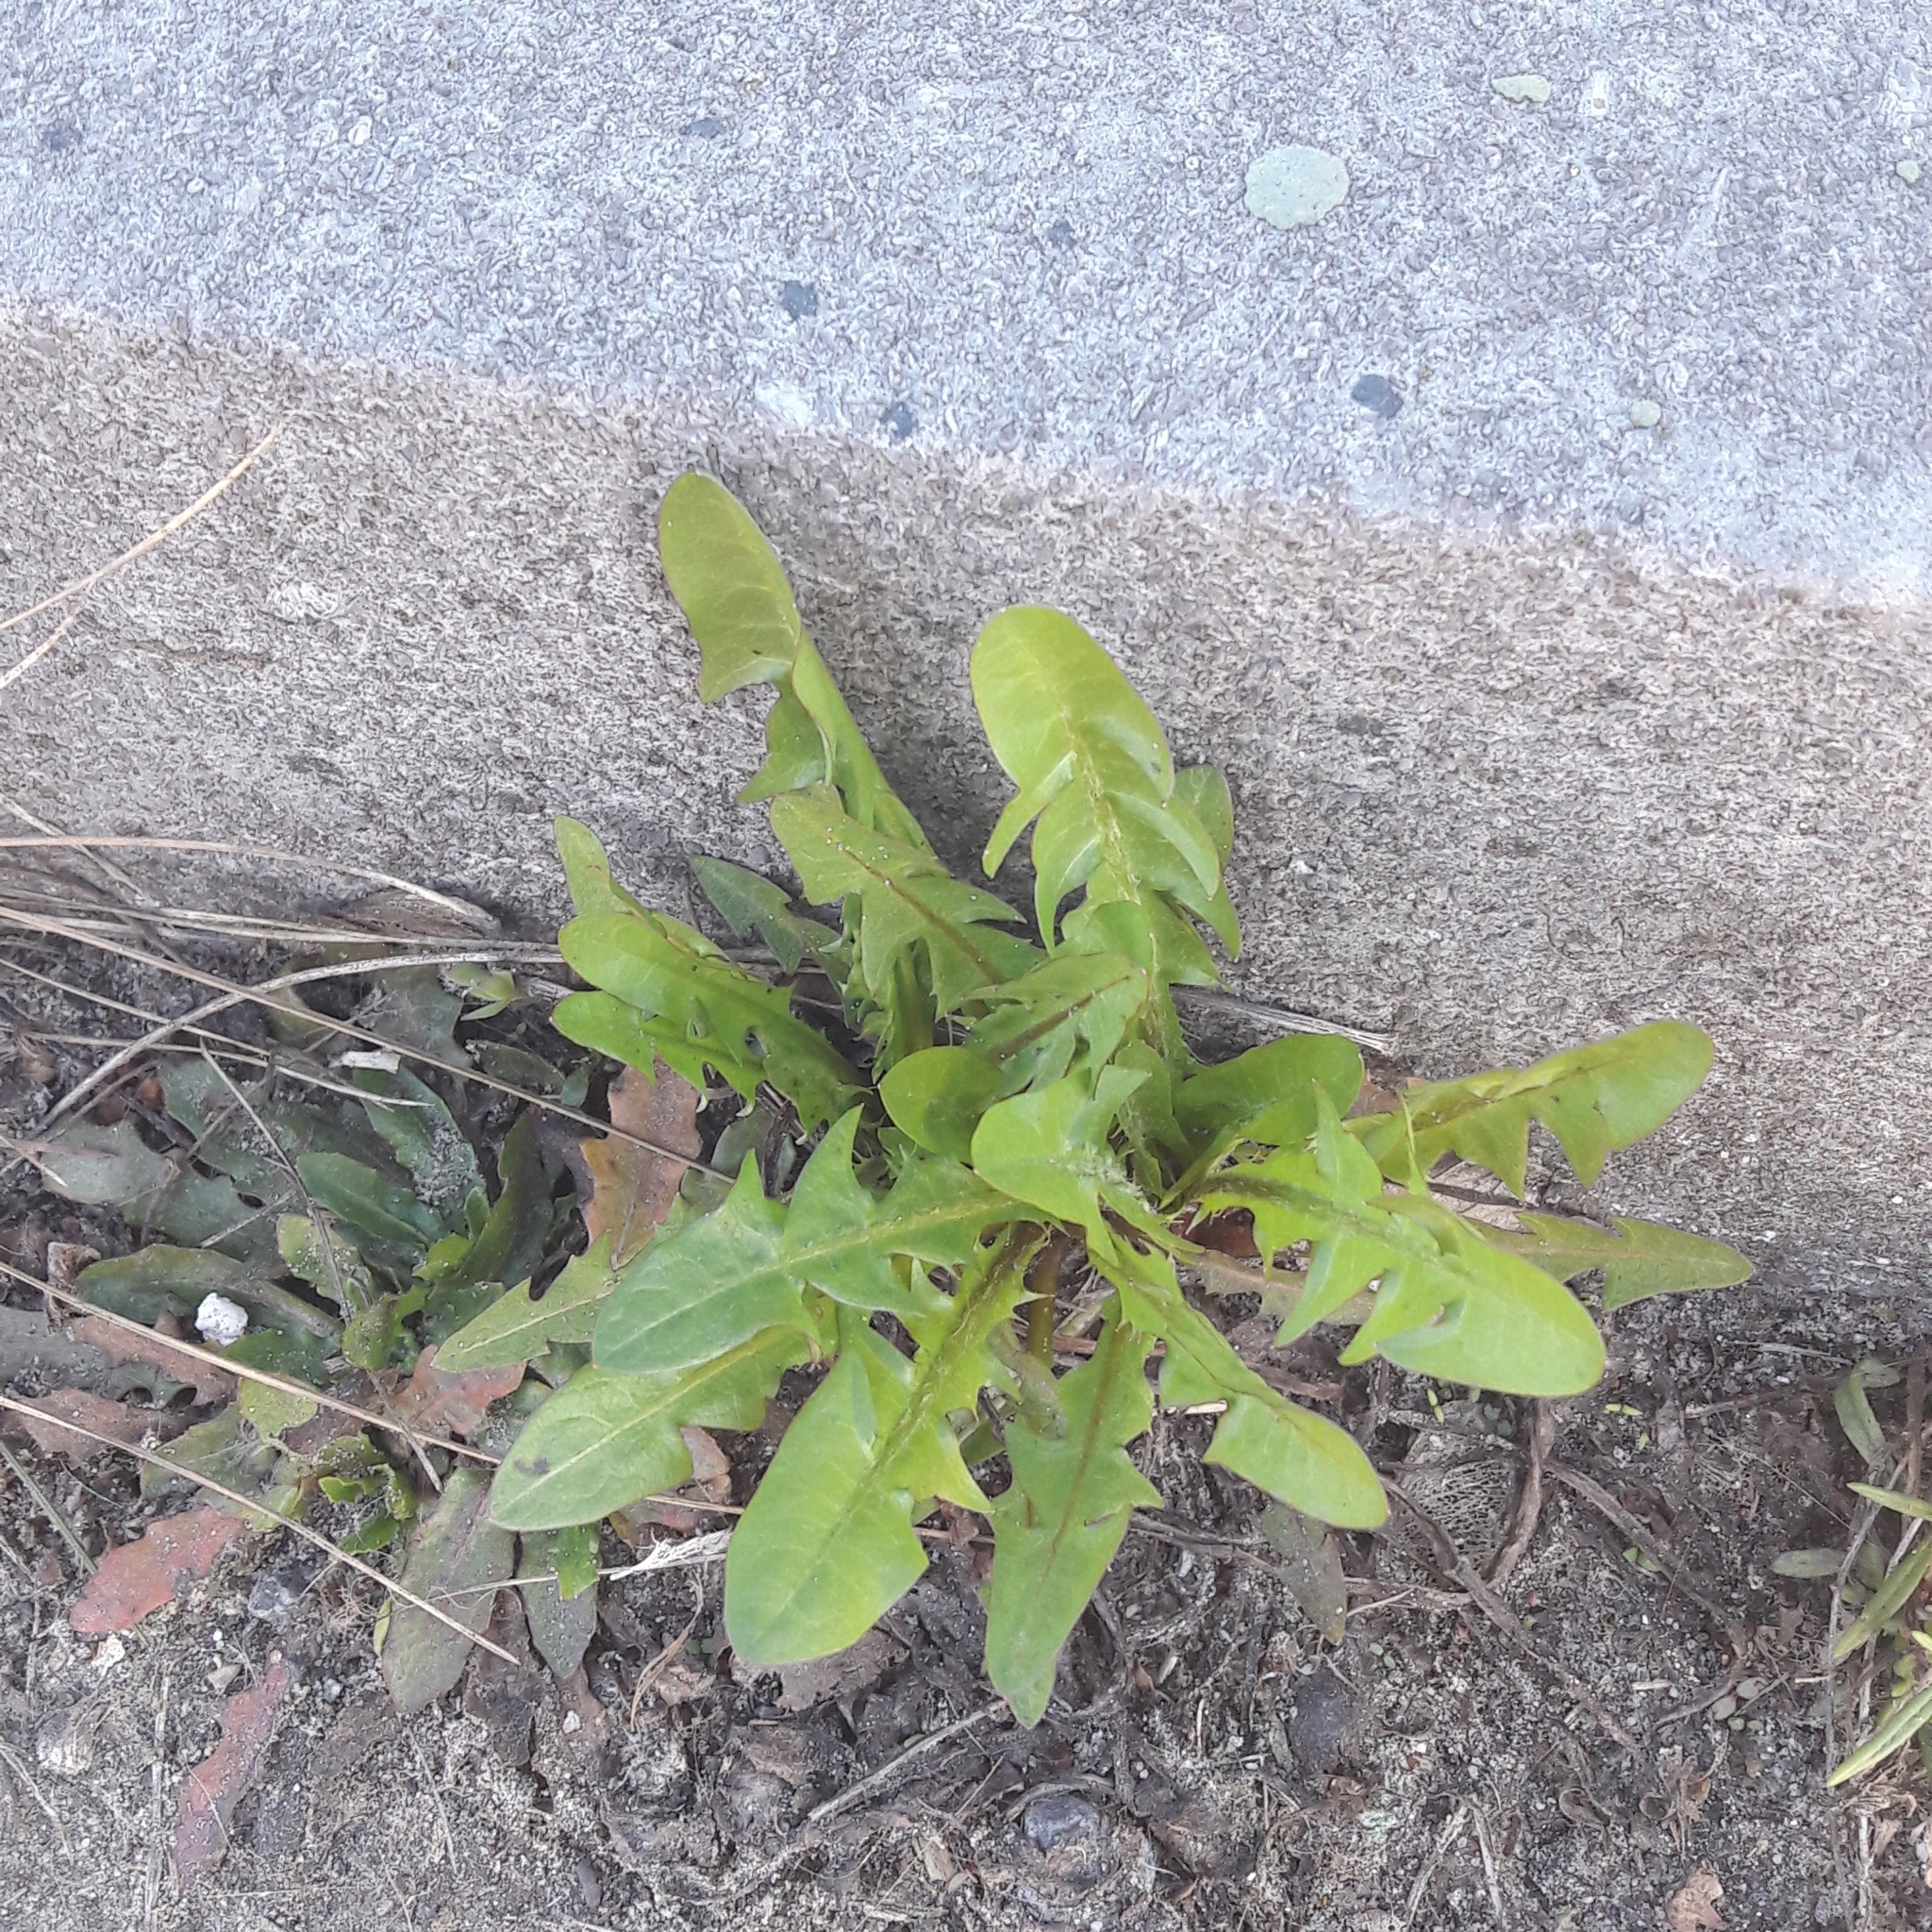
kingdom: Plantae
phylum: Tracheophyta
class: Magnoliopsida
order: Asterales
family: Asteraceae
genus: Taraxacum
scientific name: Taraxacum officinale
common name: Common dandelion
